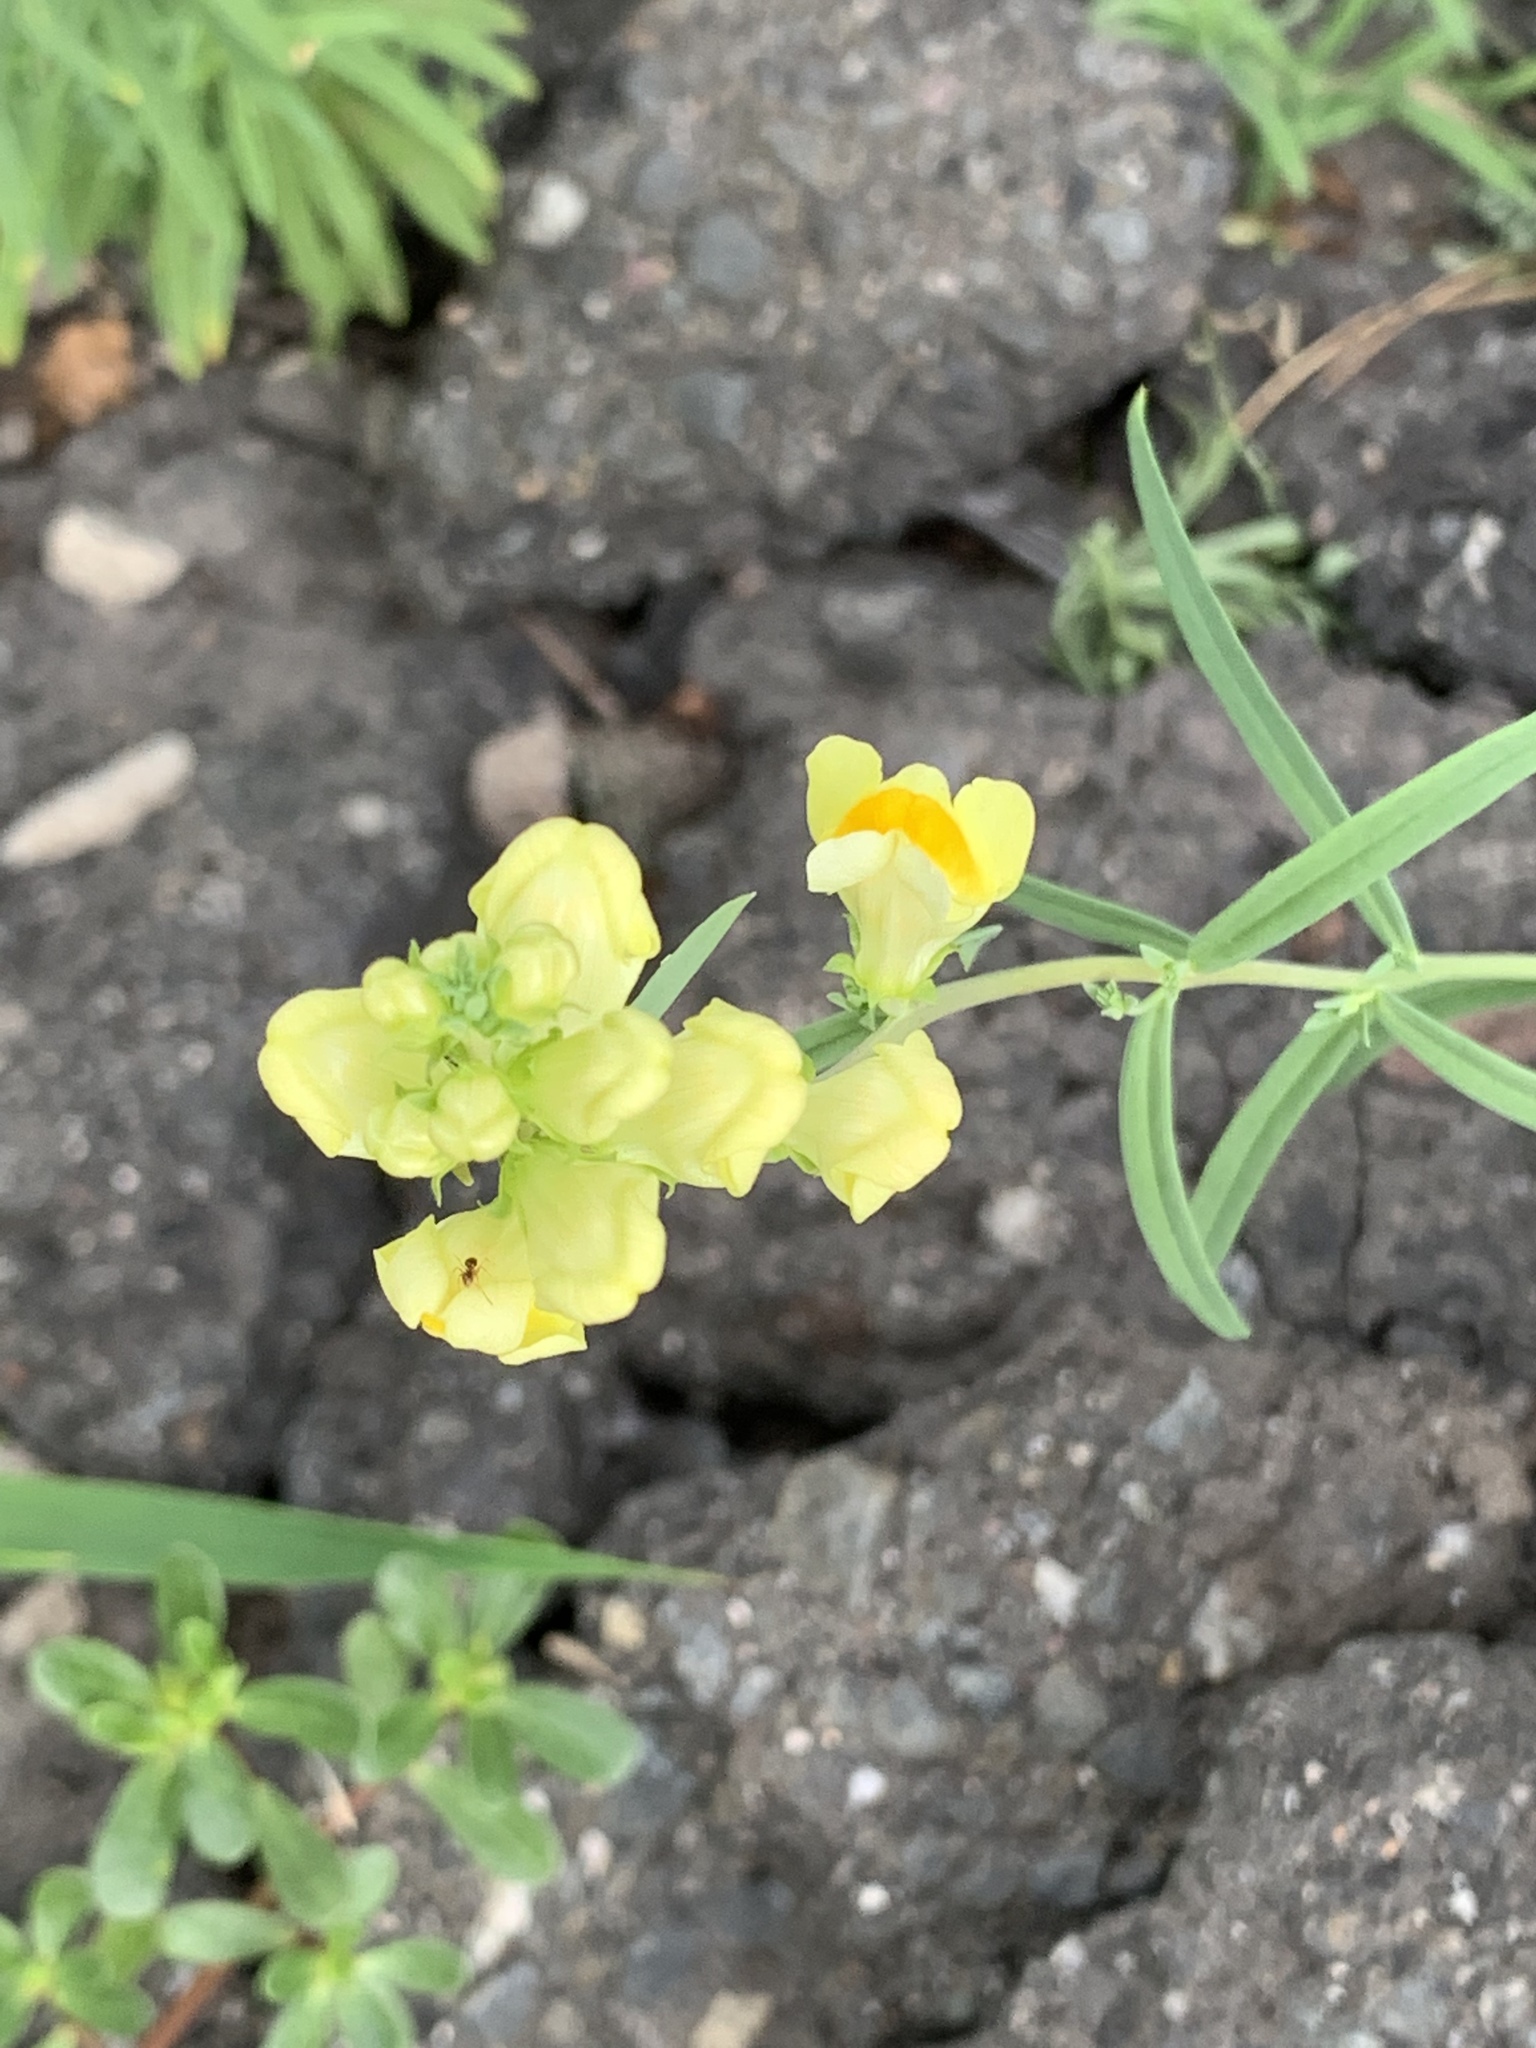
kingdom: Plantae
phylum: Tracheophyta
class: Magnoliopsida
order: Lamiales
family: Plantaginaceae
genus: Linaria
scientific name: Linaria vulgaris
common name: Butter and eggs
